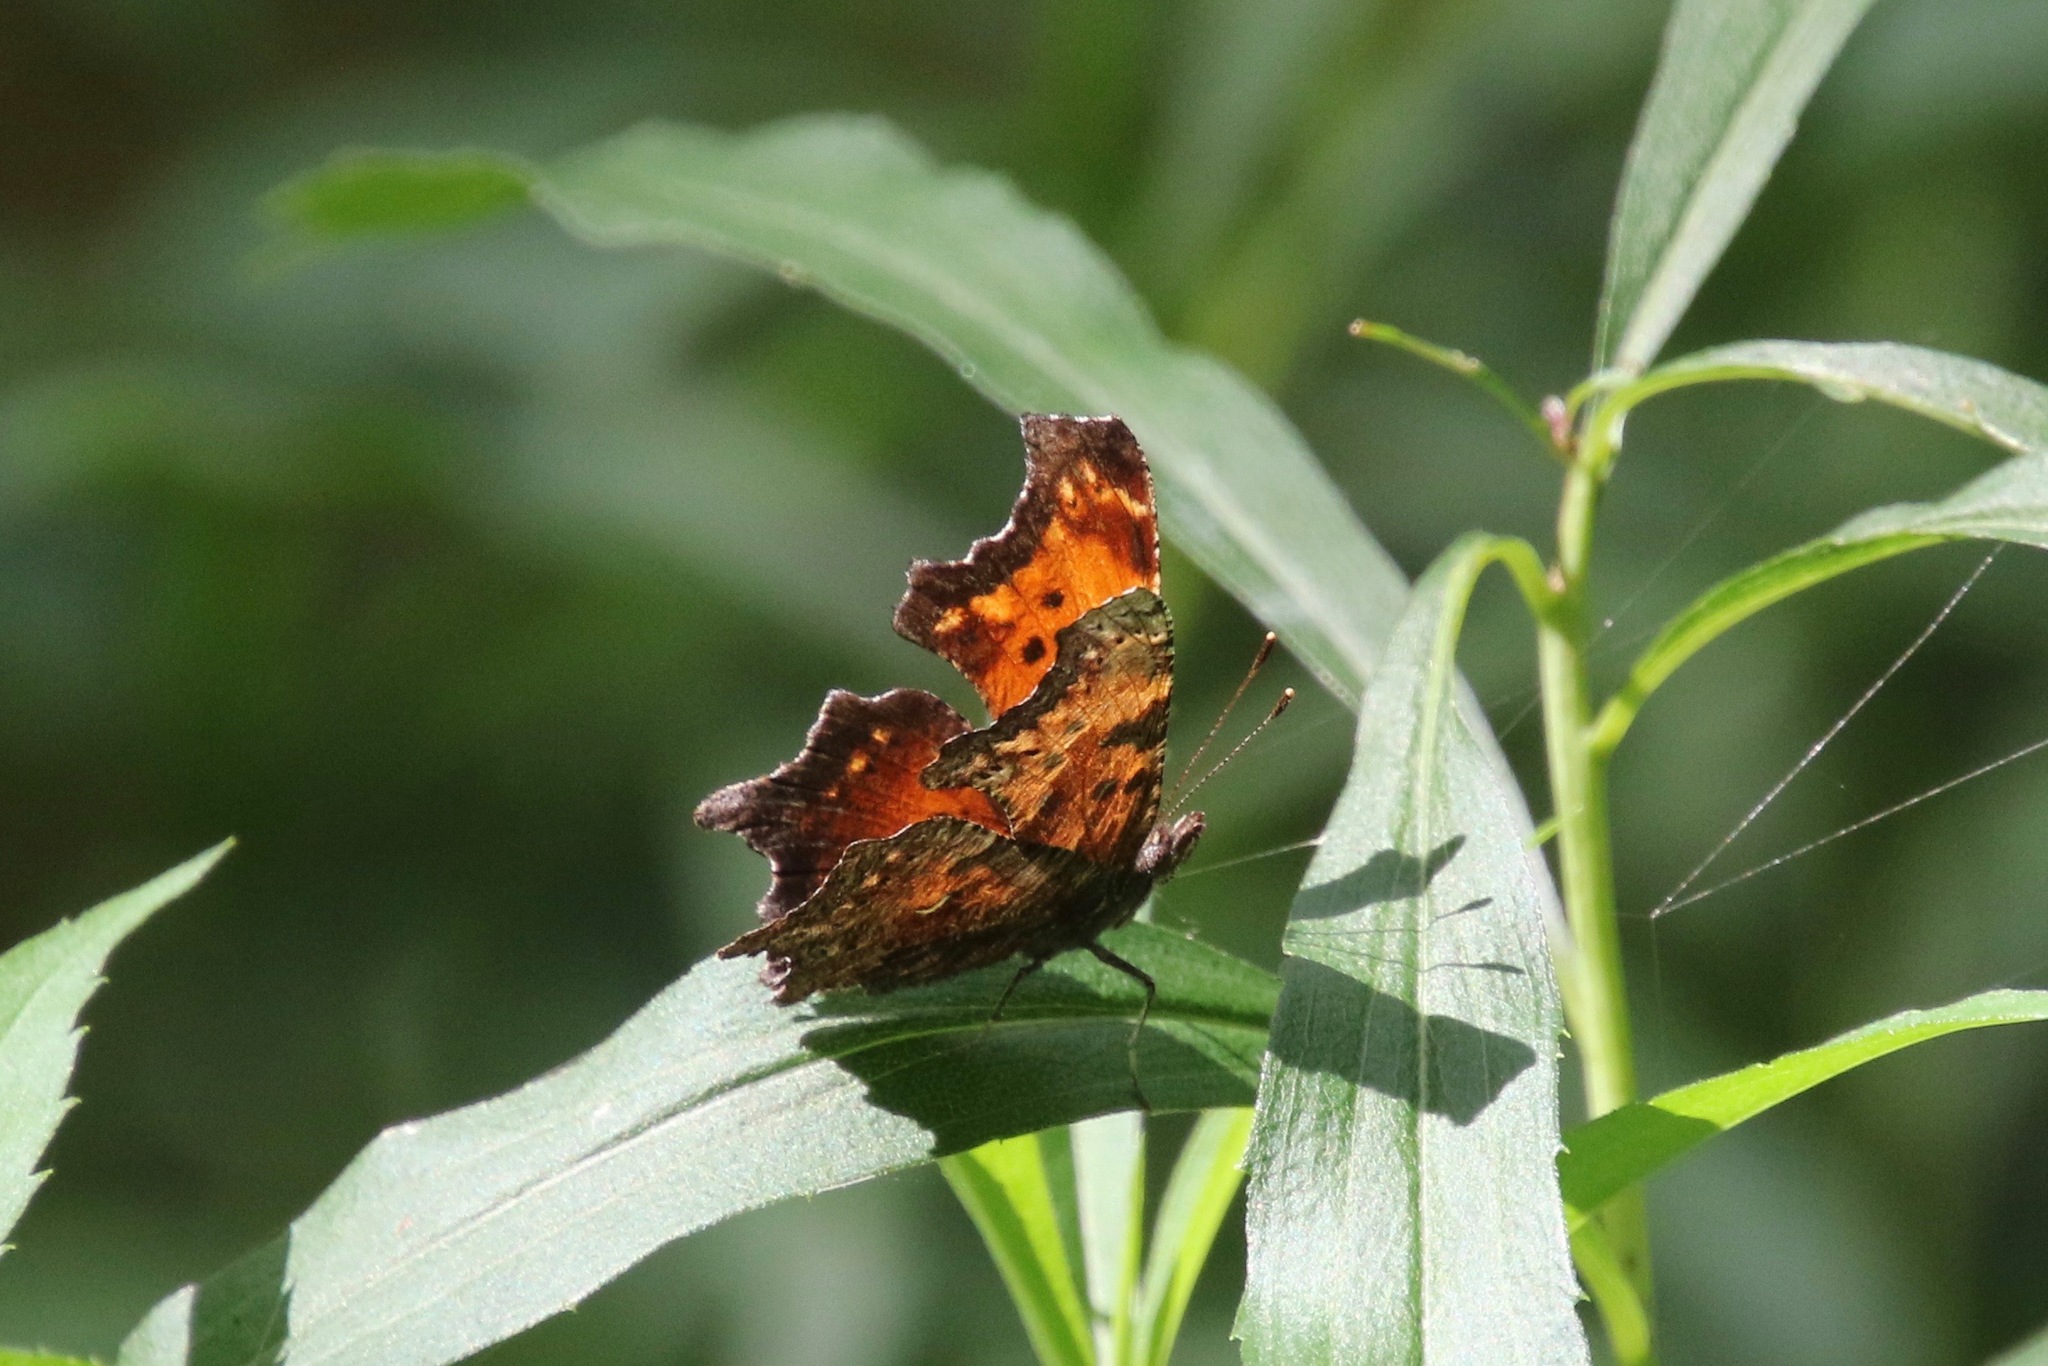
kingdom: Animalia
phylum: Arthropoda
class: Insecta
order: Lepidoptera
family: Nymphalidae
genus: Polygonia
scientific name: Polygonia progne
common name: Gray comma
